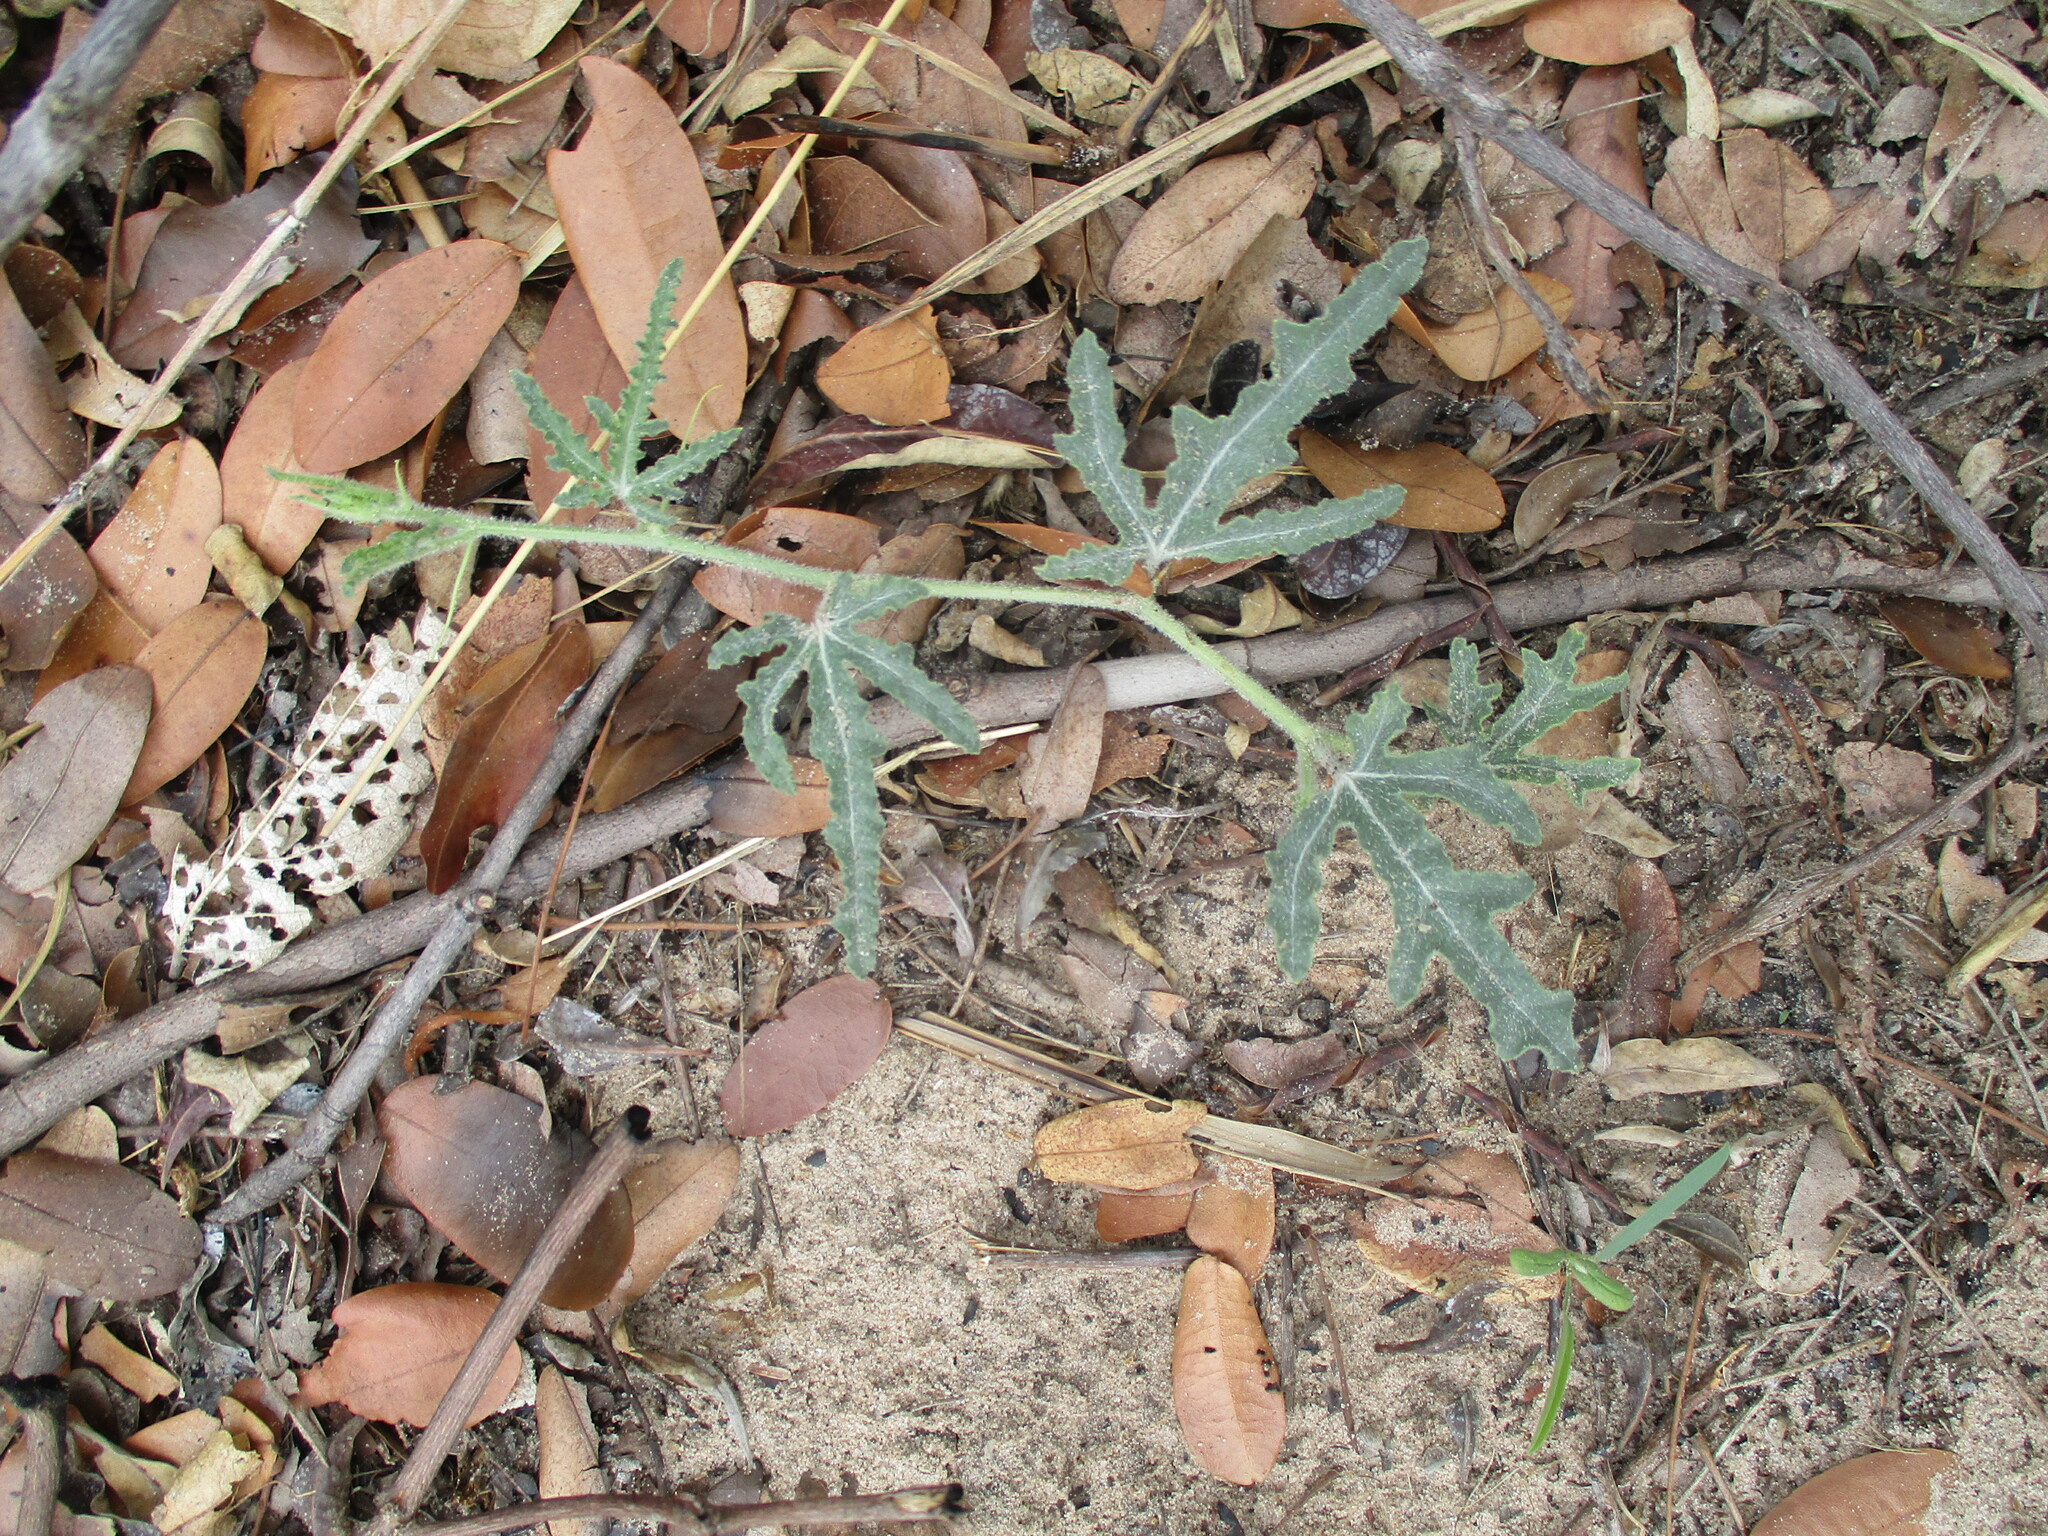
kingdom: Plantae
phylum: Tracheophyta
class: Magnoliopsida
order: Cucurbitales
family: Cucurbitaceae
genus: Citrullus
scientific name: Citrullus naudinianus
